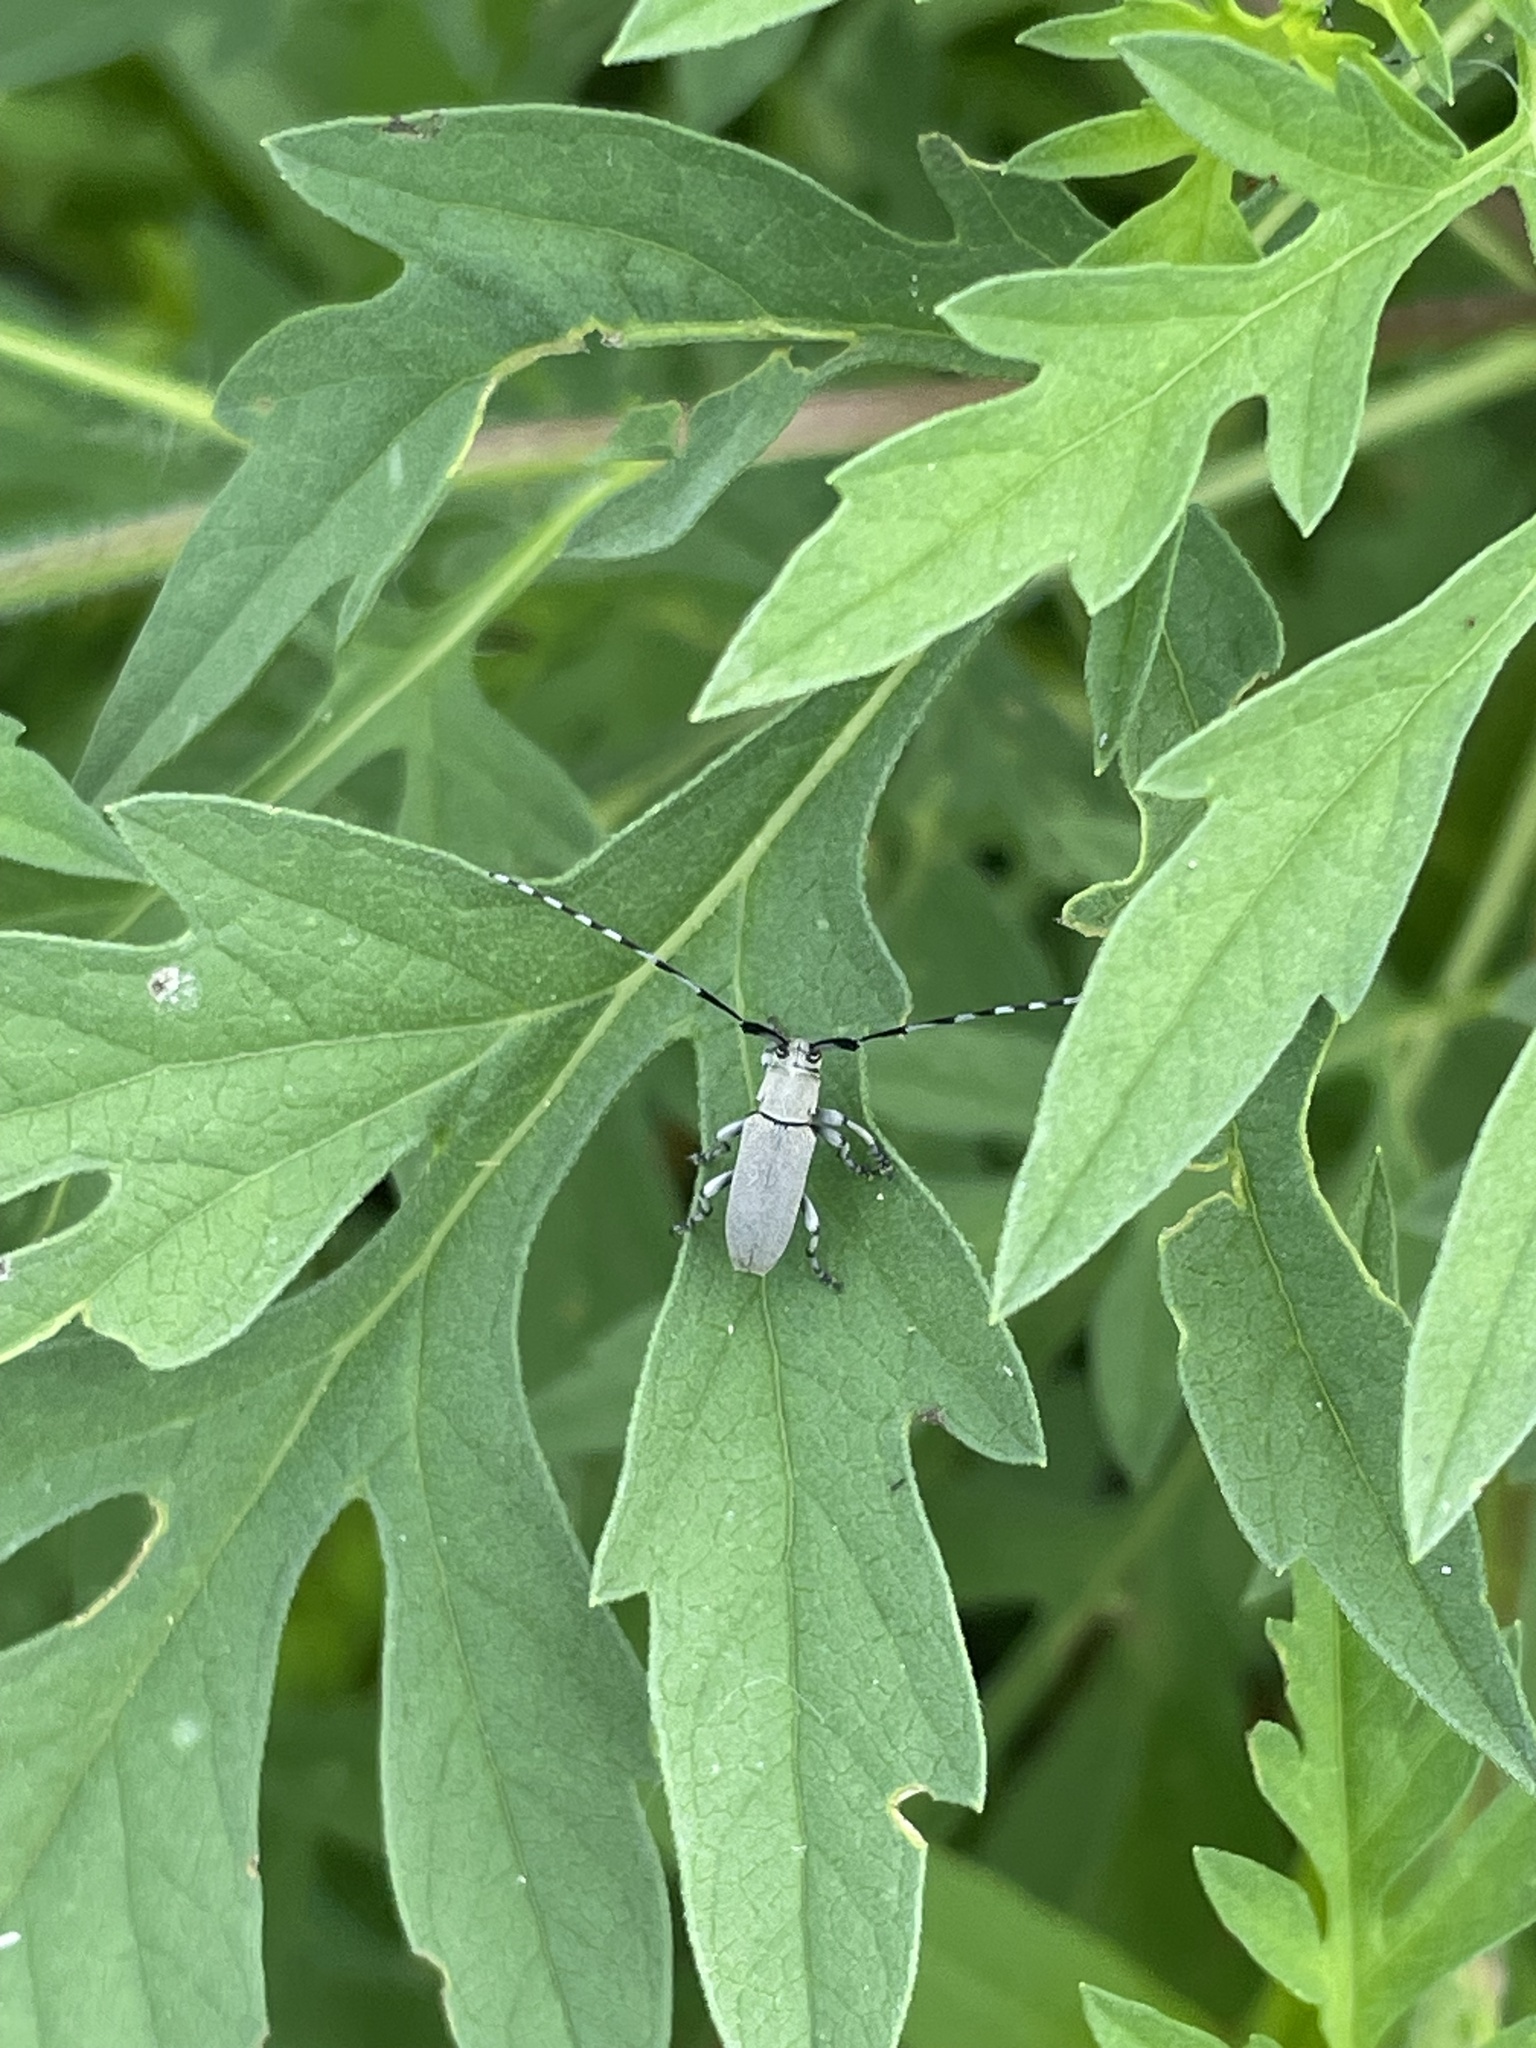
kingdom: Animalia
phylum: Arthropoda
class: Insecta
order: Coleoptera
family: Cerambycidae
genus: Dectes
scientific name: Dectes texanus
